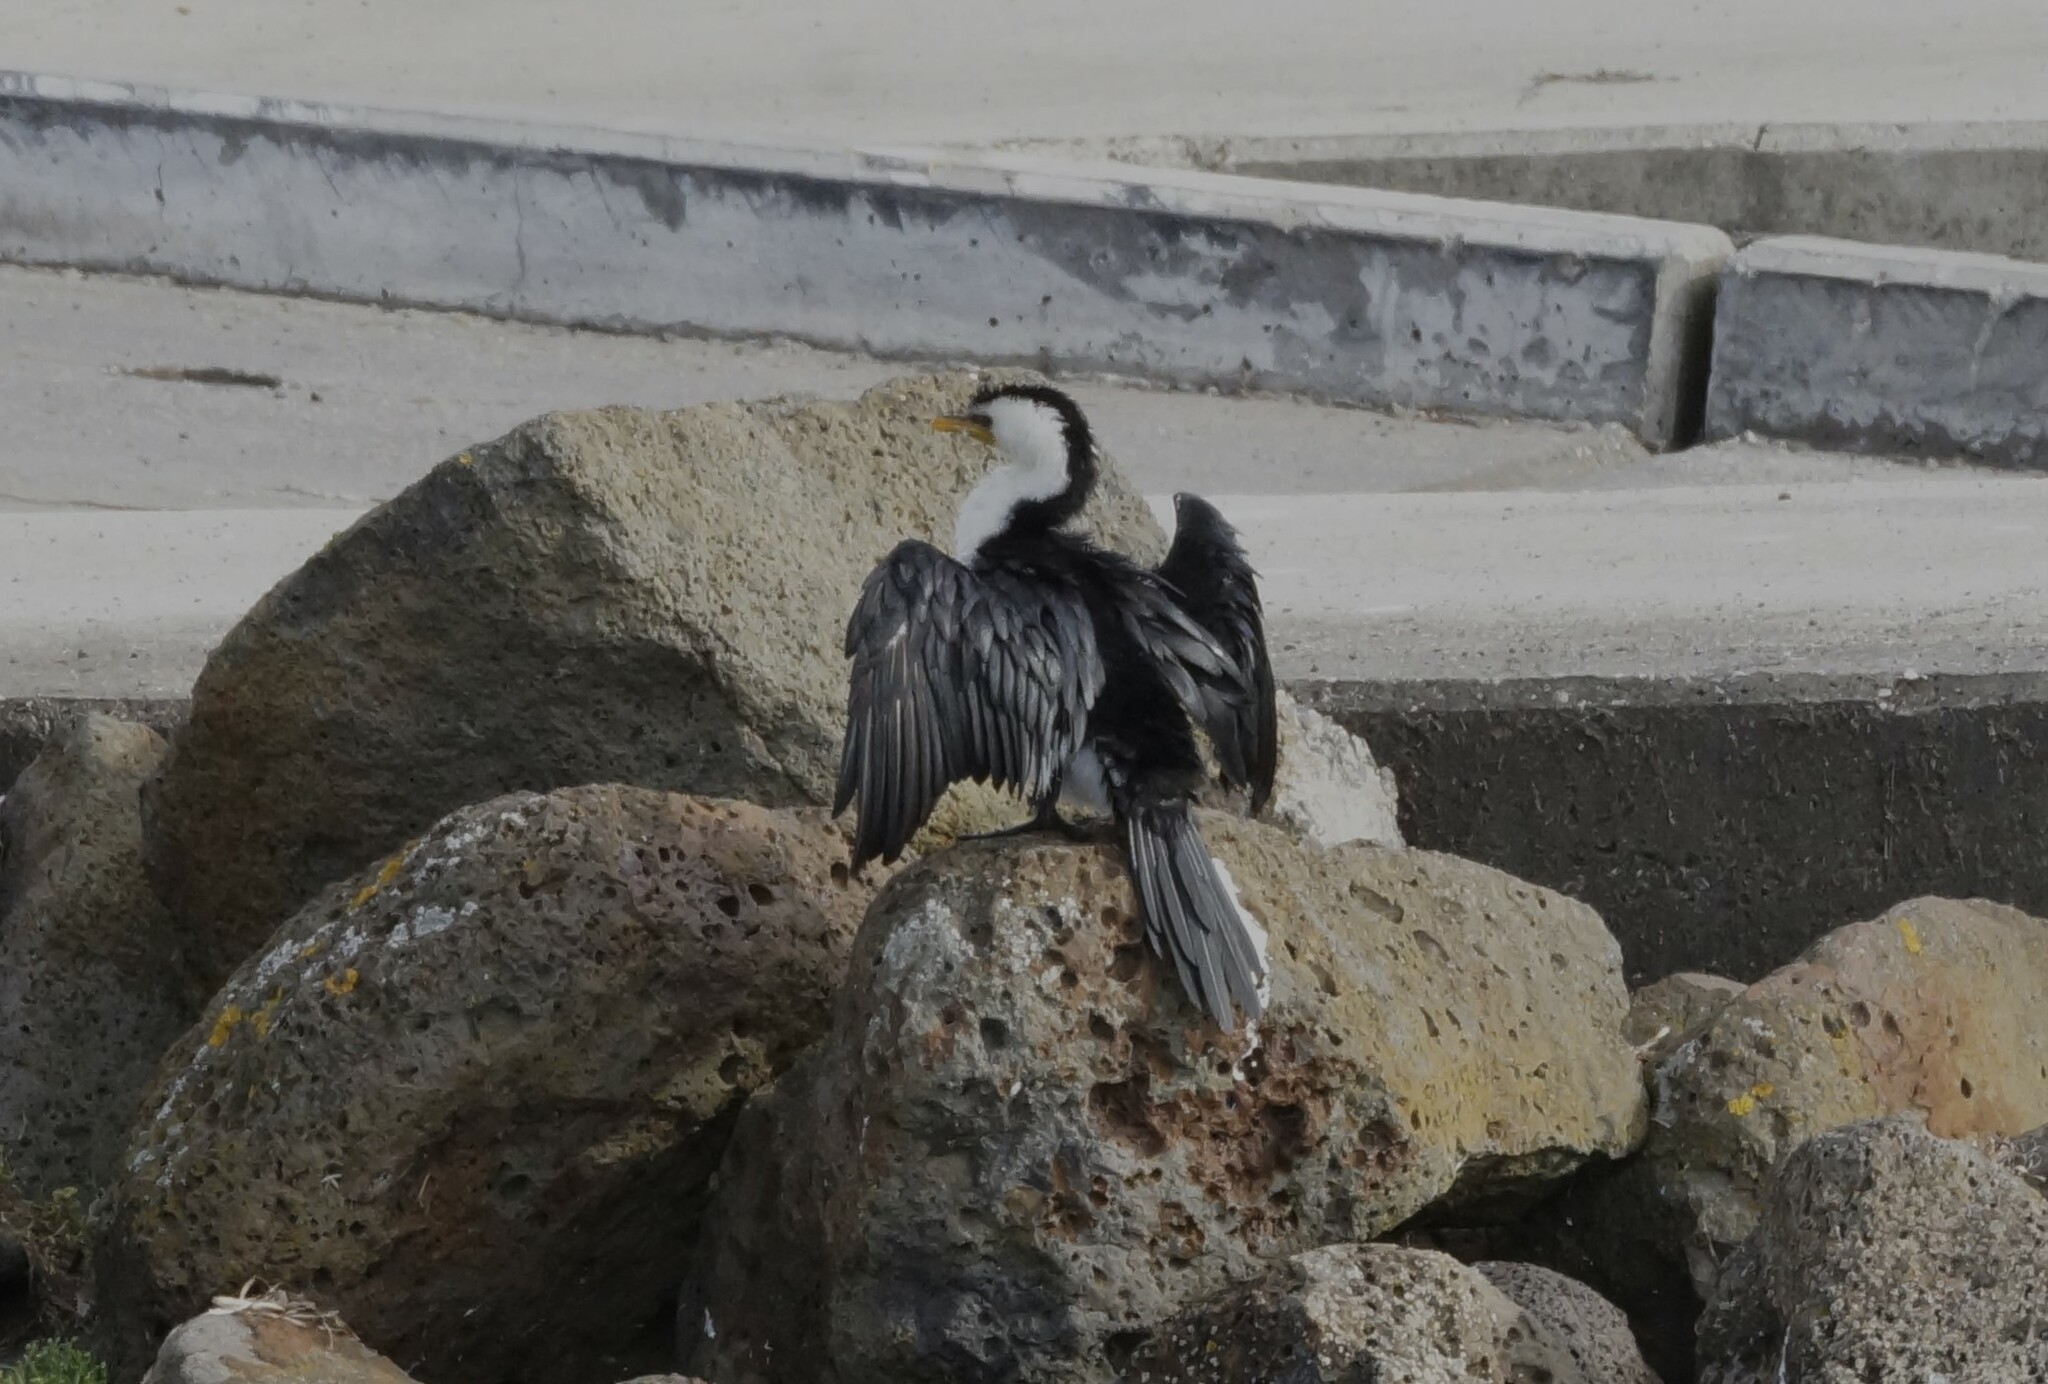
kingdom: Animalia
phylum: Chordata
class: Aves
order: Suliformes
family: Phalacrocoracidae
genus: Microcarbo
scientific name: Microcarbo melanoleucos
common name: Little pied cormorant
